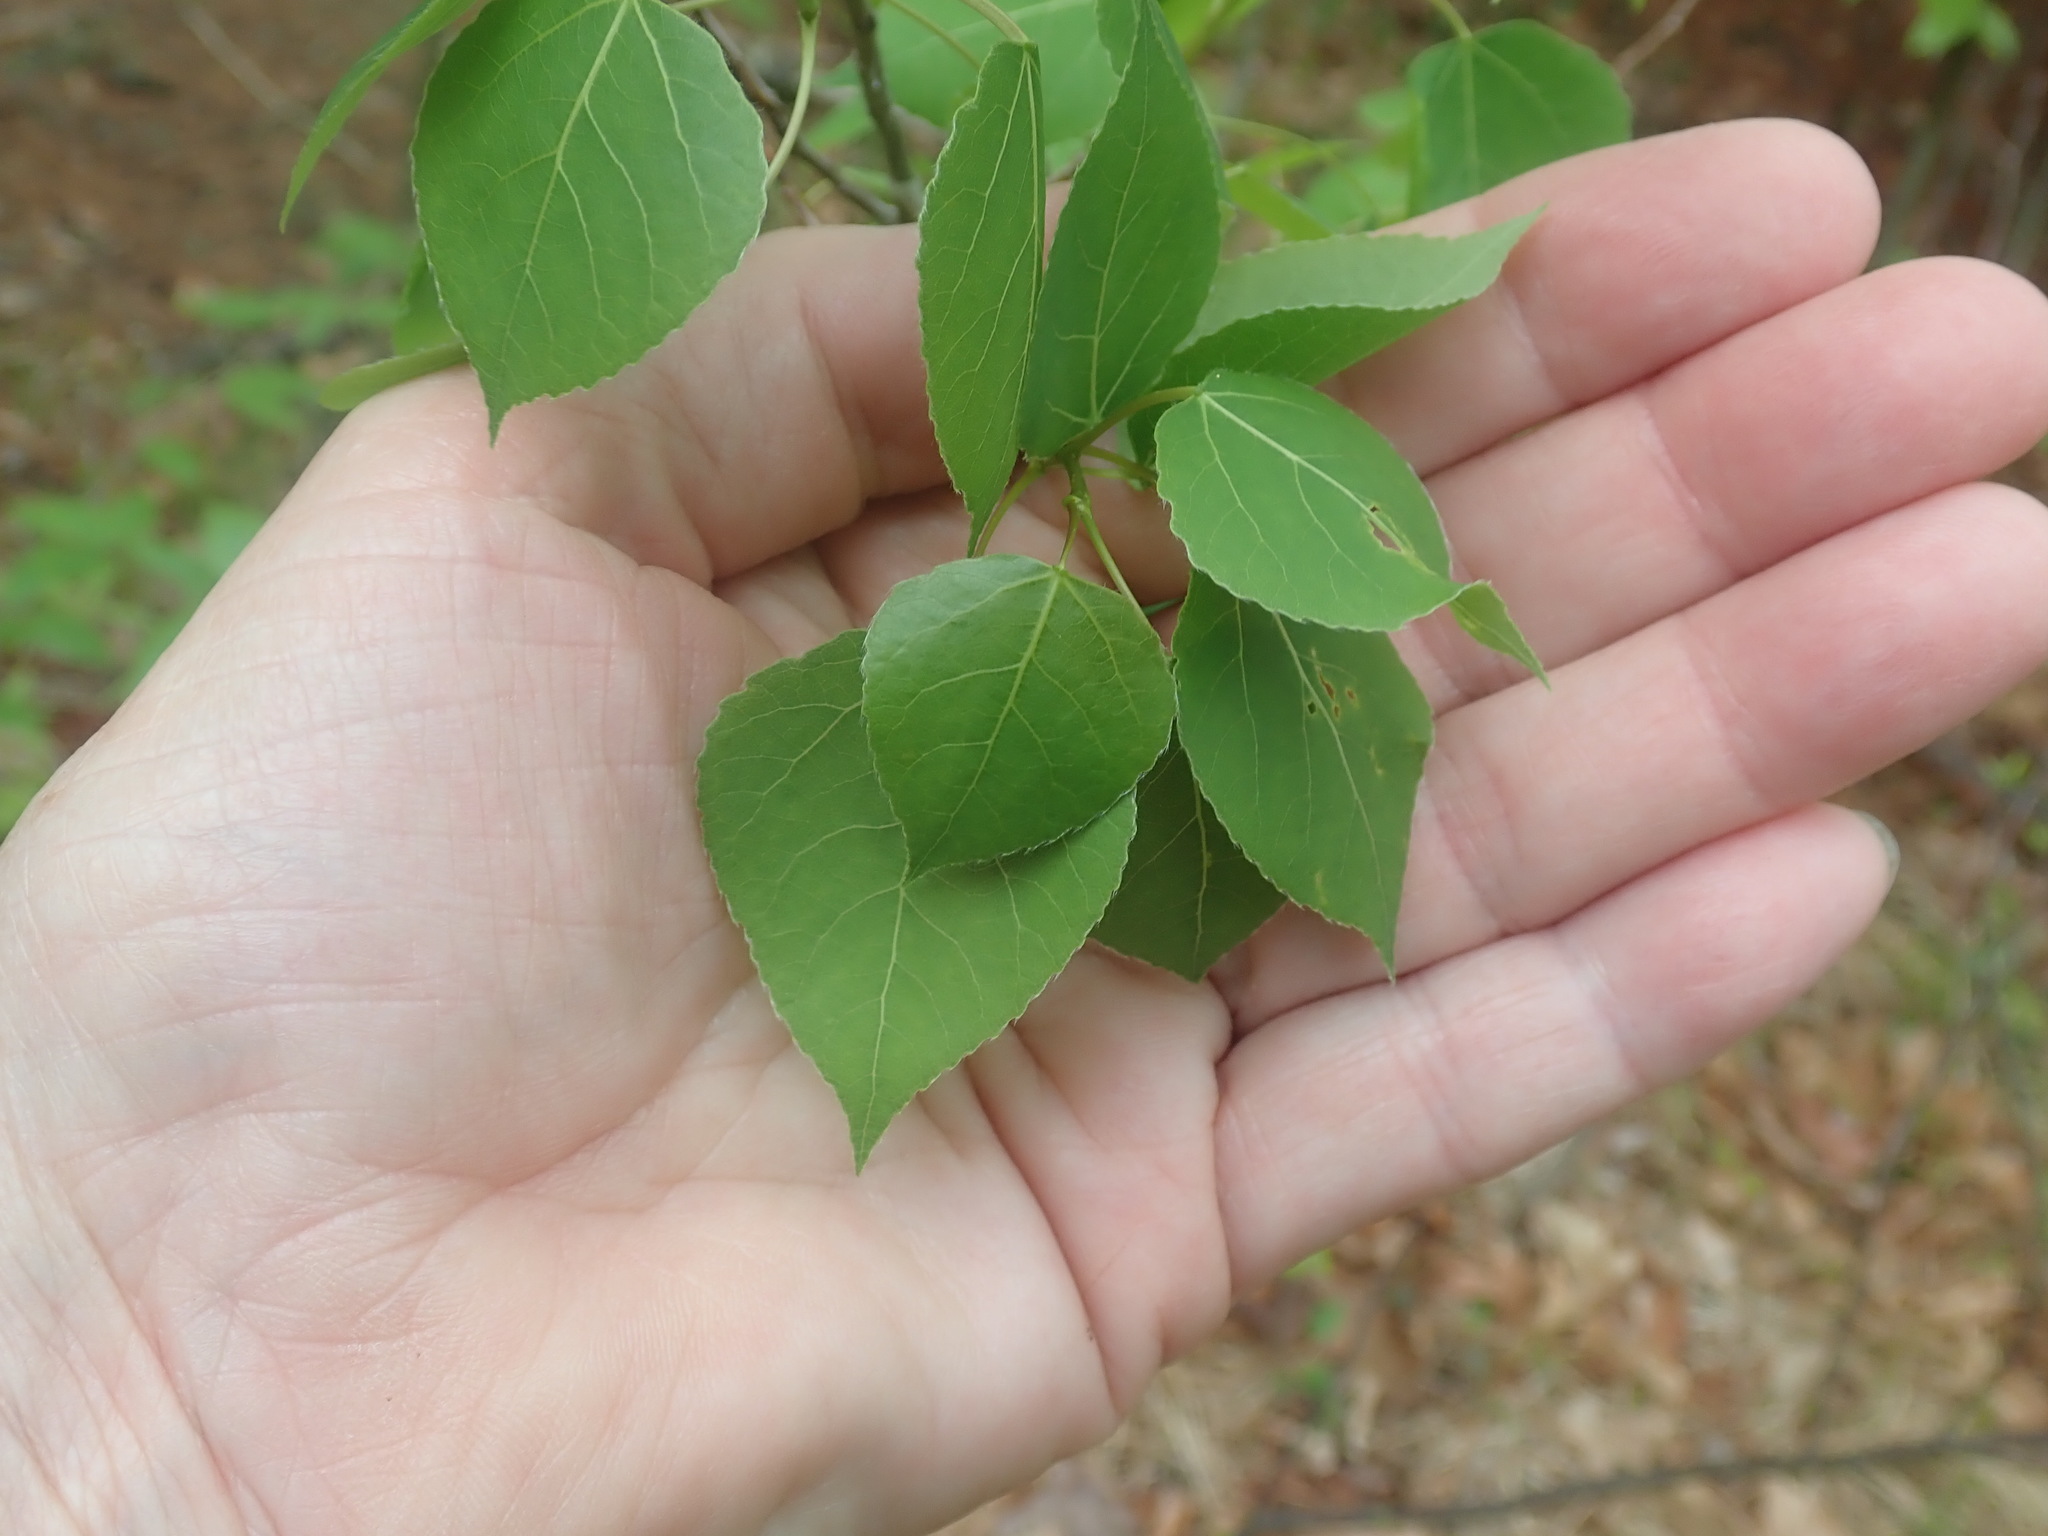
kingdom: Plantae
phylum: Tracheophyta
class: Magnoliopsida
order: Malpighiales
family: Salicaceae
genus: Populus
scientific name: Populus tremuloides
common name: Quaking aspen
